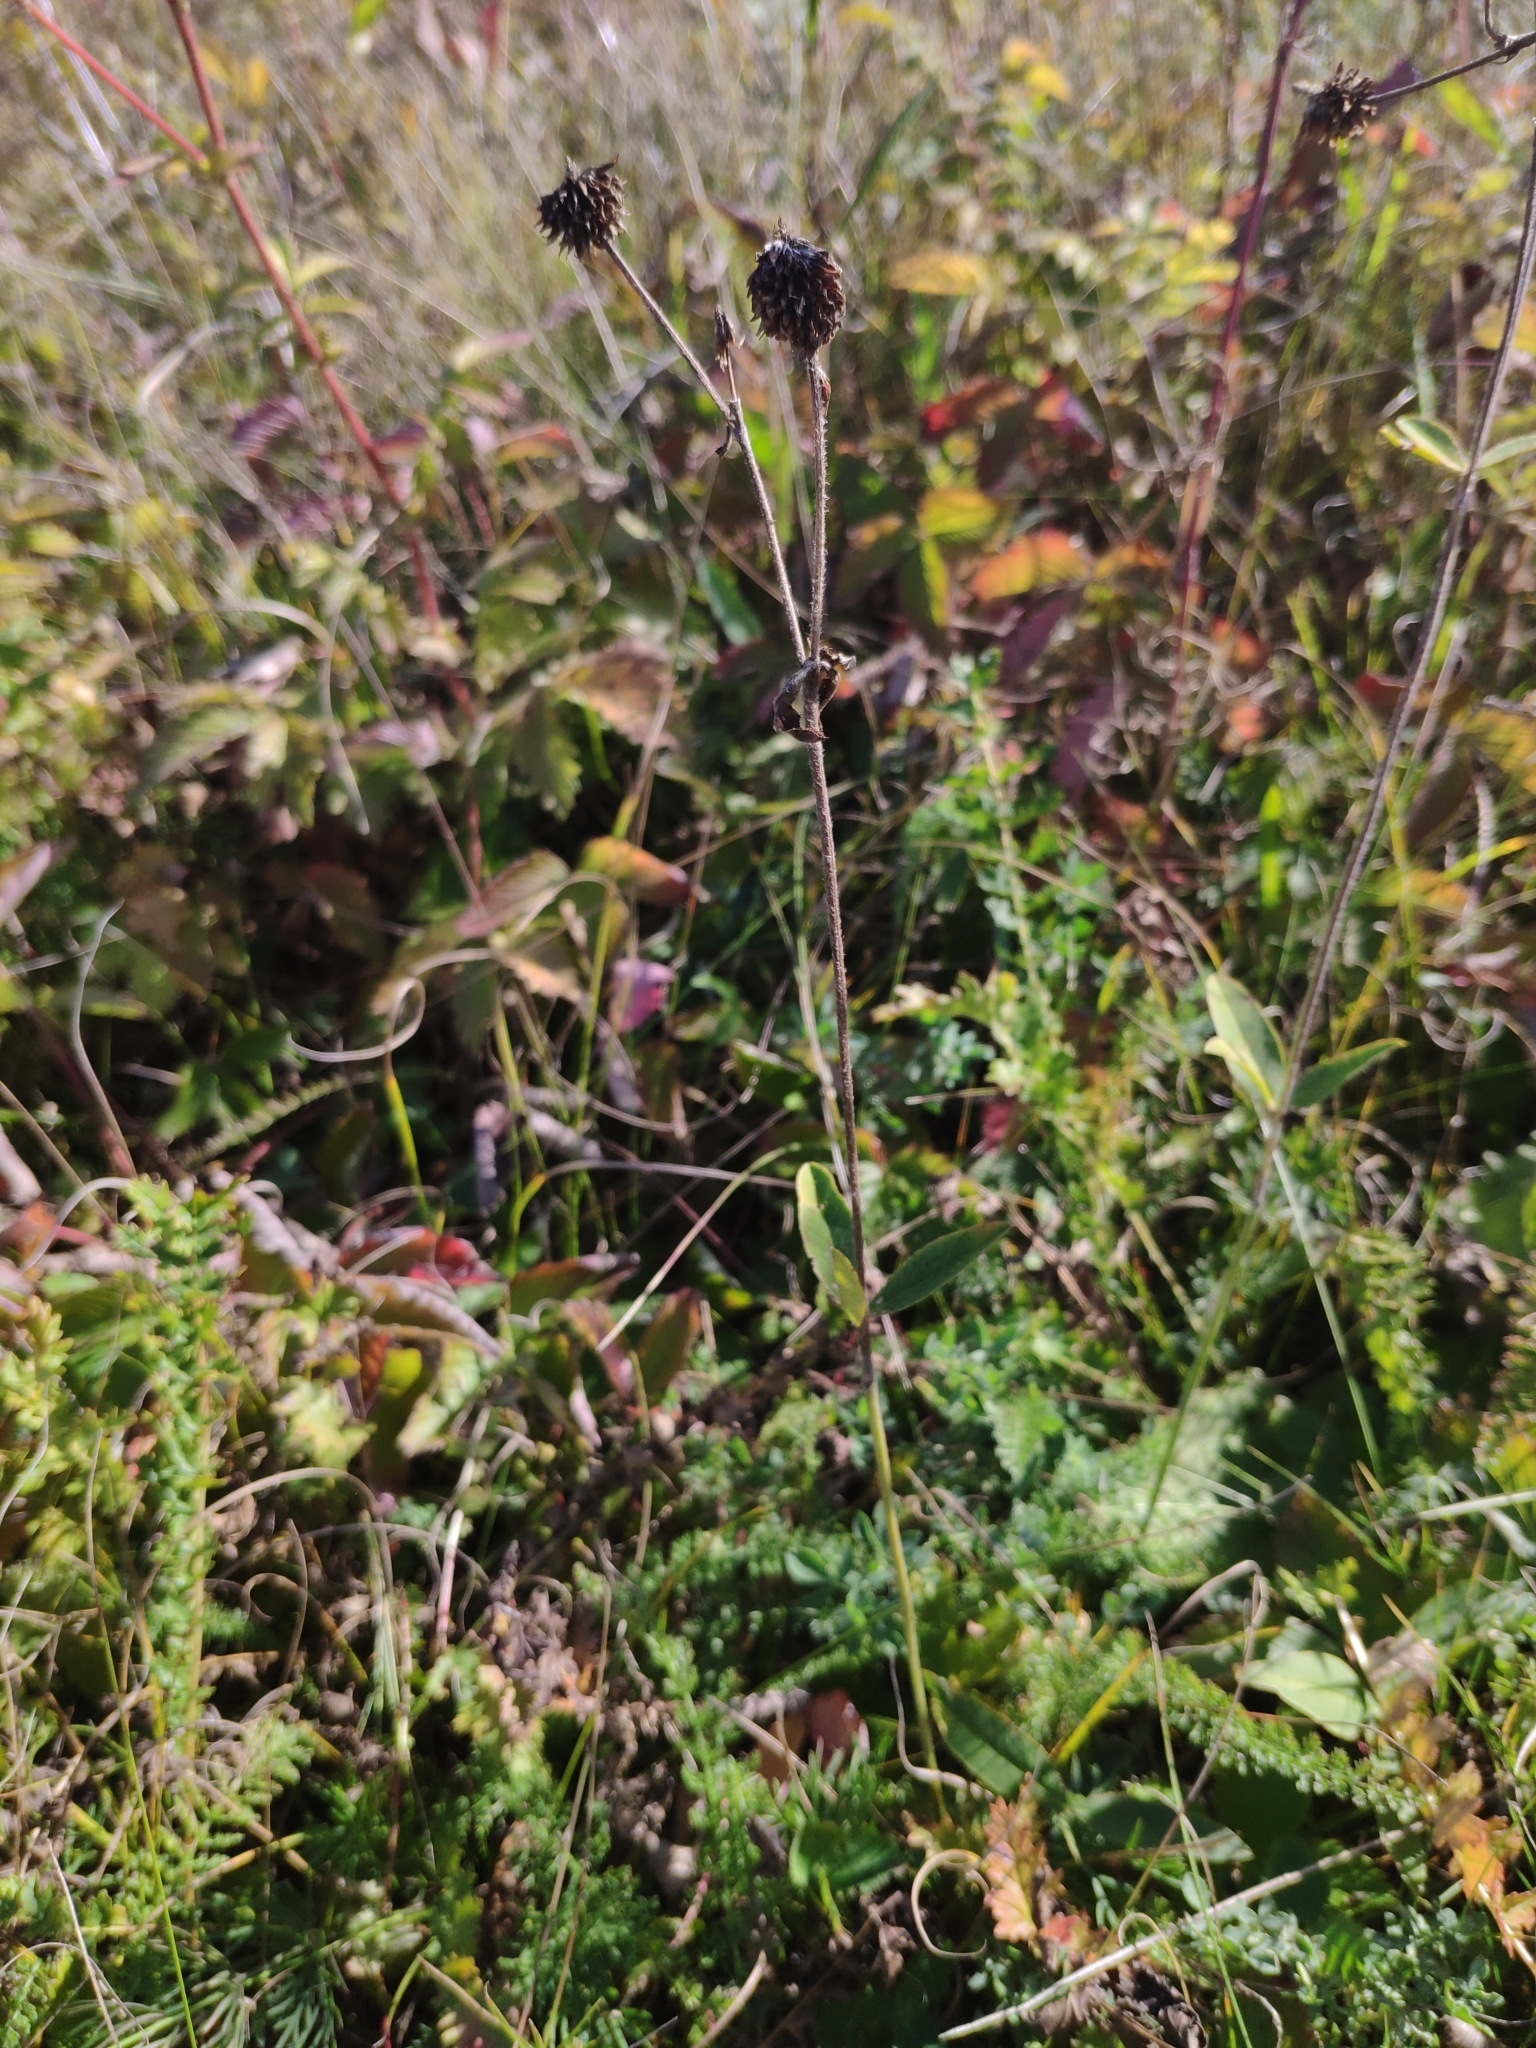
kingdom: Plantae
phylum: Tracheophyta
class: Magnoliopsida
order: Fabales
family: Fabaceae
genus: Trifolium
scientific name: Trifolium montanum
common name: Mountain clover
